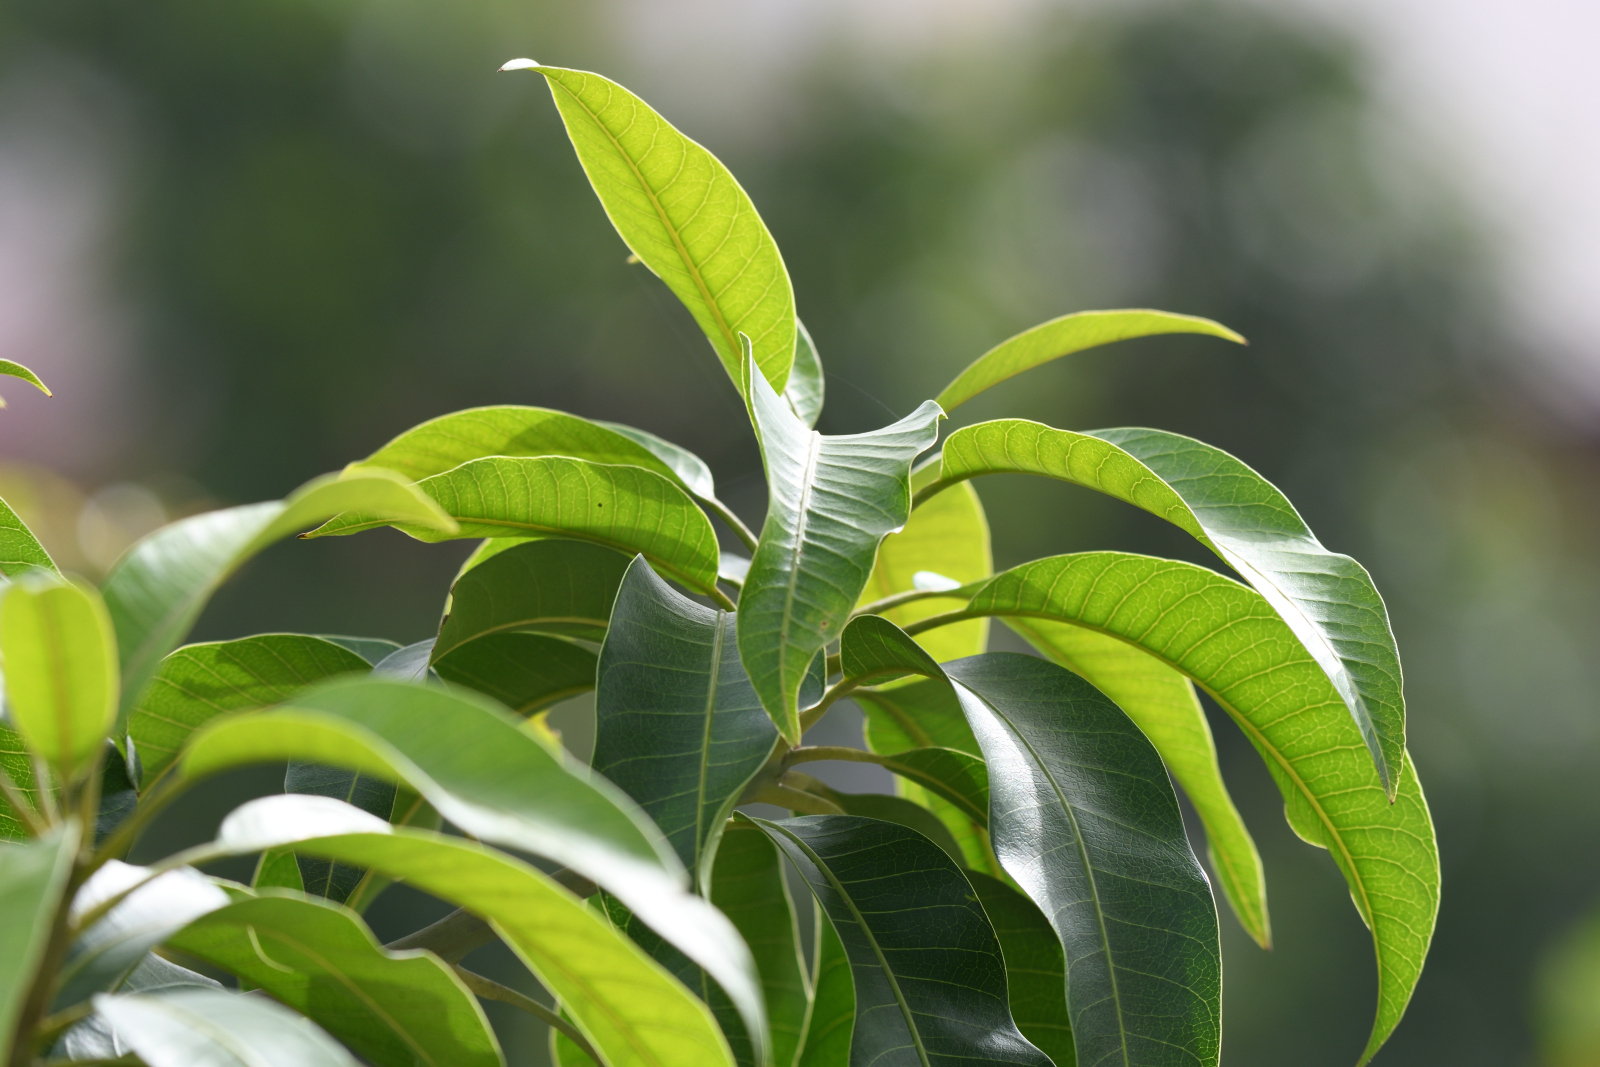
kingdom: Plantae
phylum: Tracheophyta
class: Magnoliopsida
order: Sapindales
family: Anacardiaceae
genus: Mangifera
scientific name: Mangifera indica
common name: Mango
